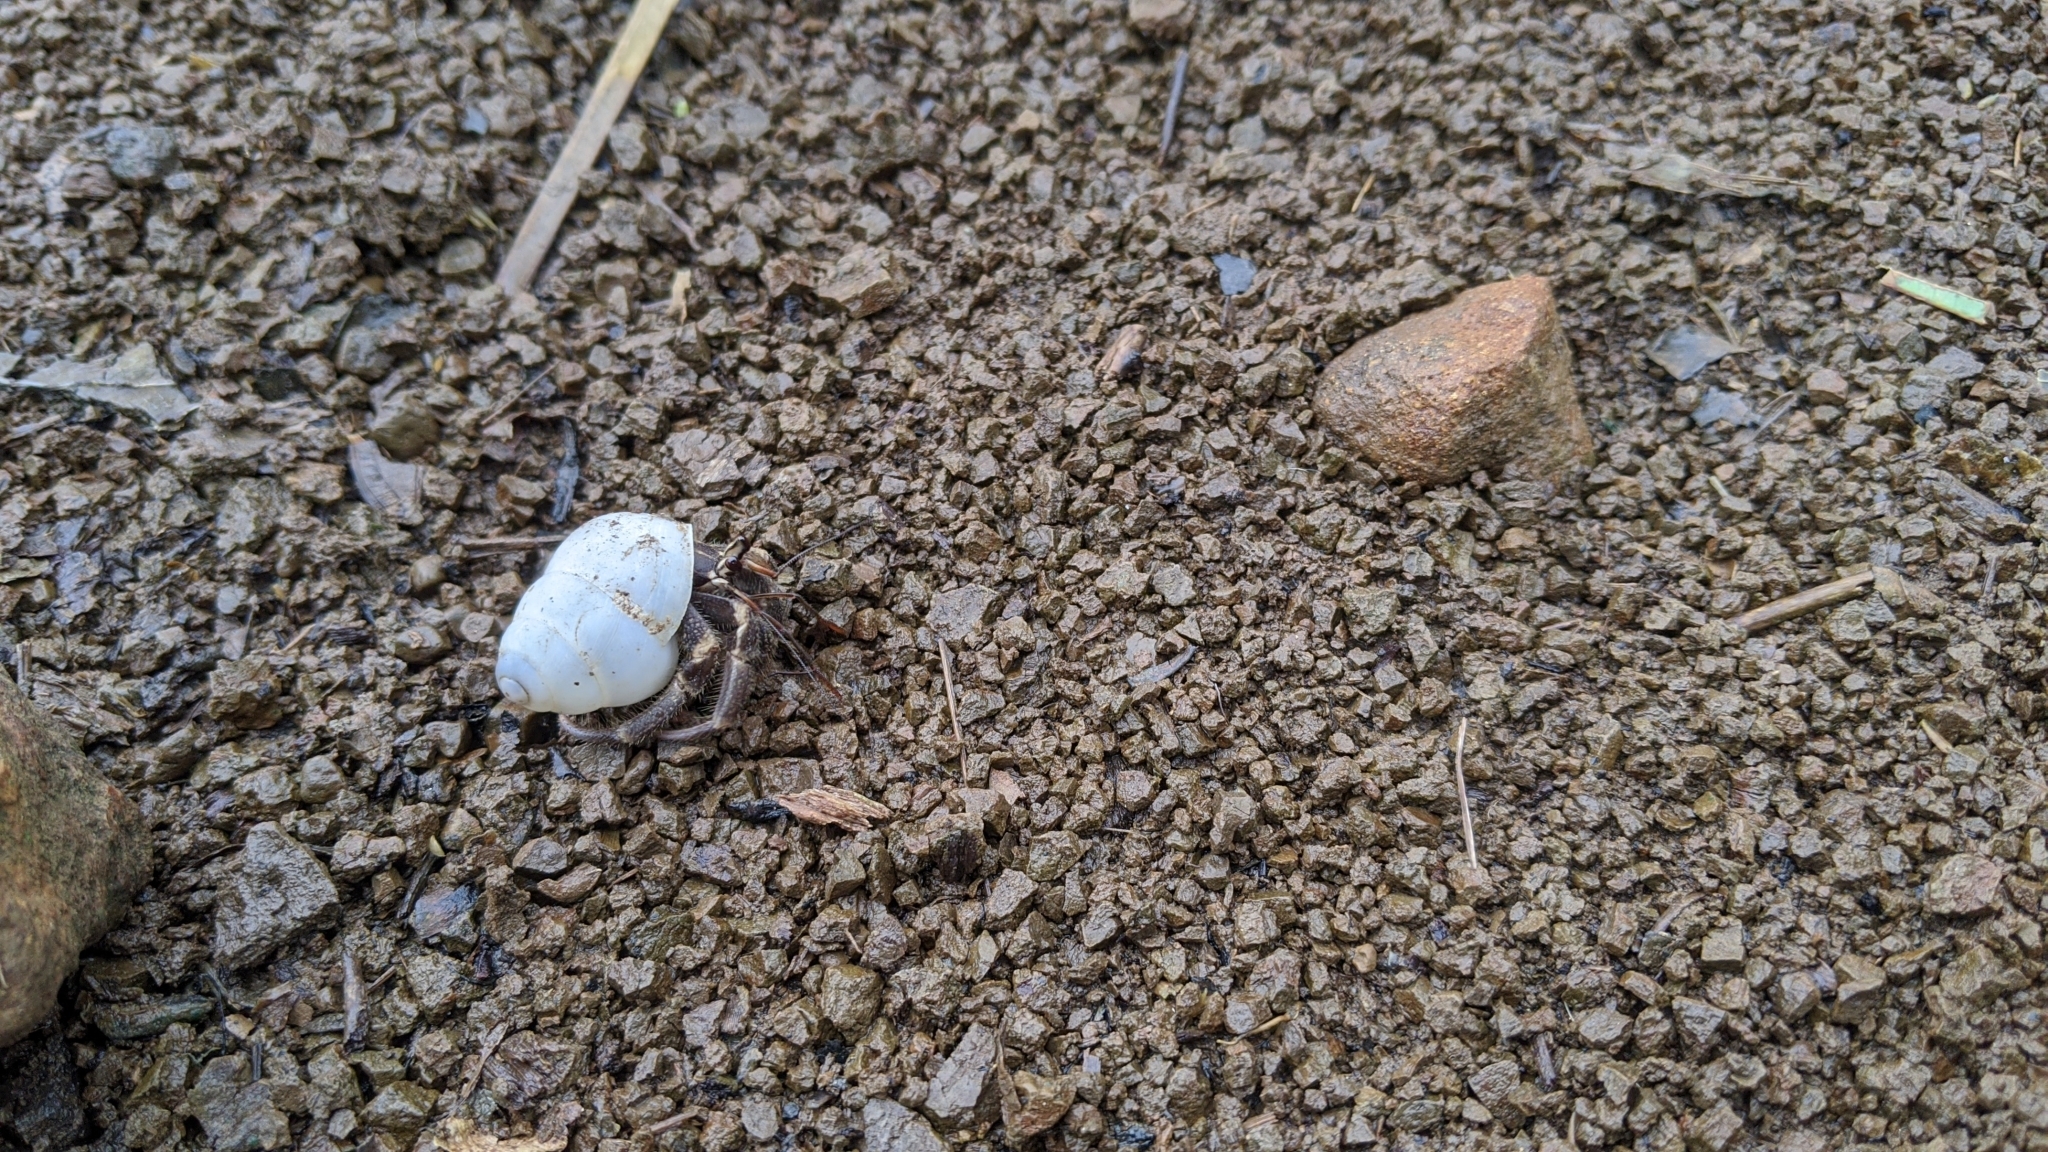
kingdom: Animalia
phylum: Arthropoda
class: Malacostraca
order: Decapoda
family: Coenobitidae
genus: Coenobita
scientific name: Coenobita cavipes
